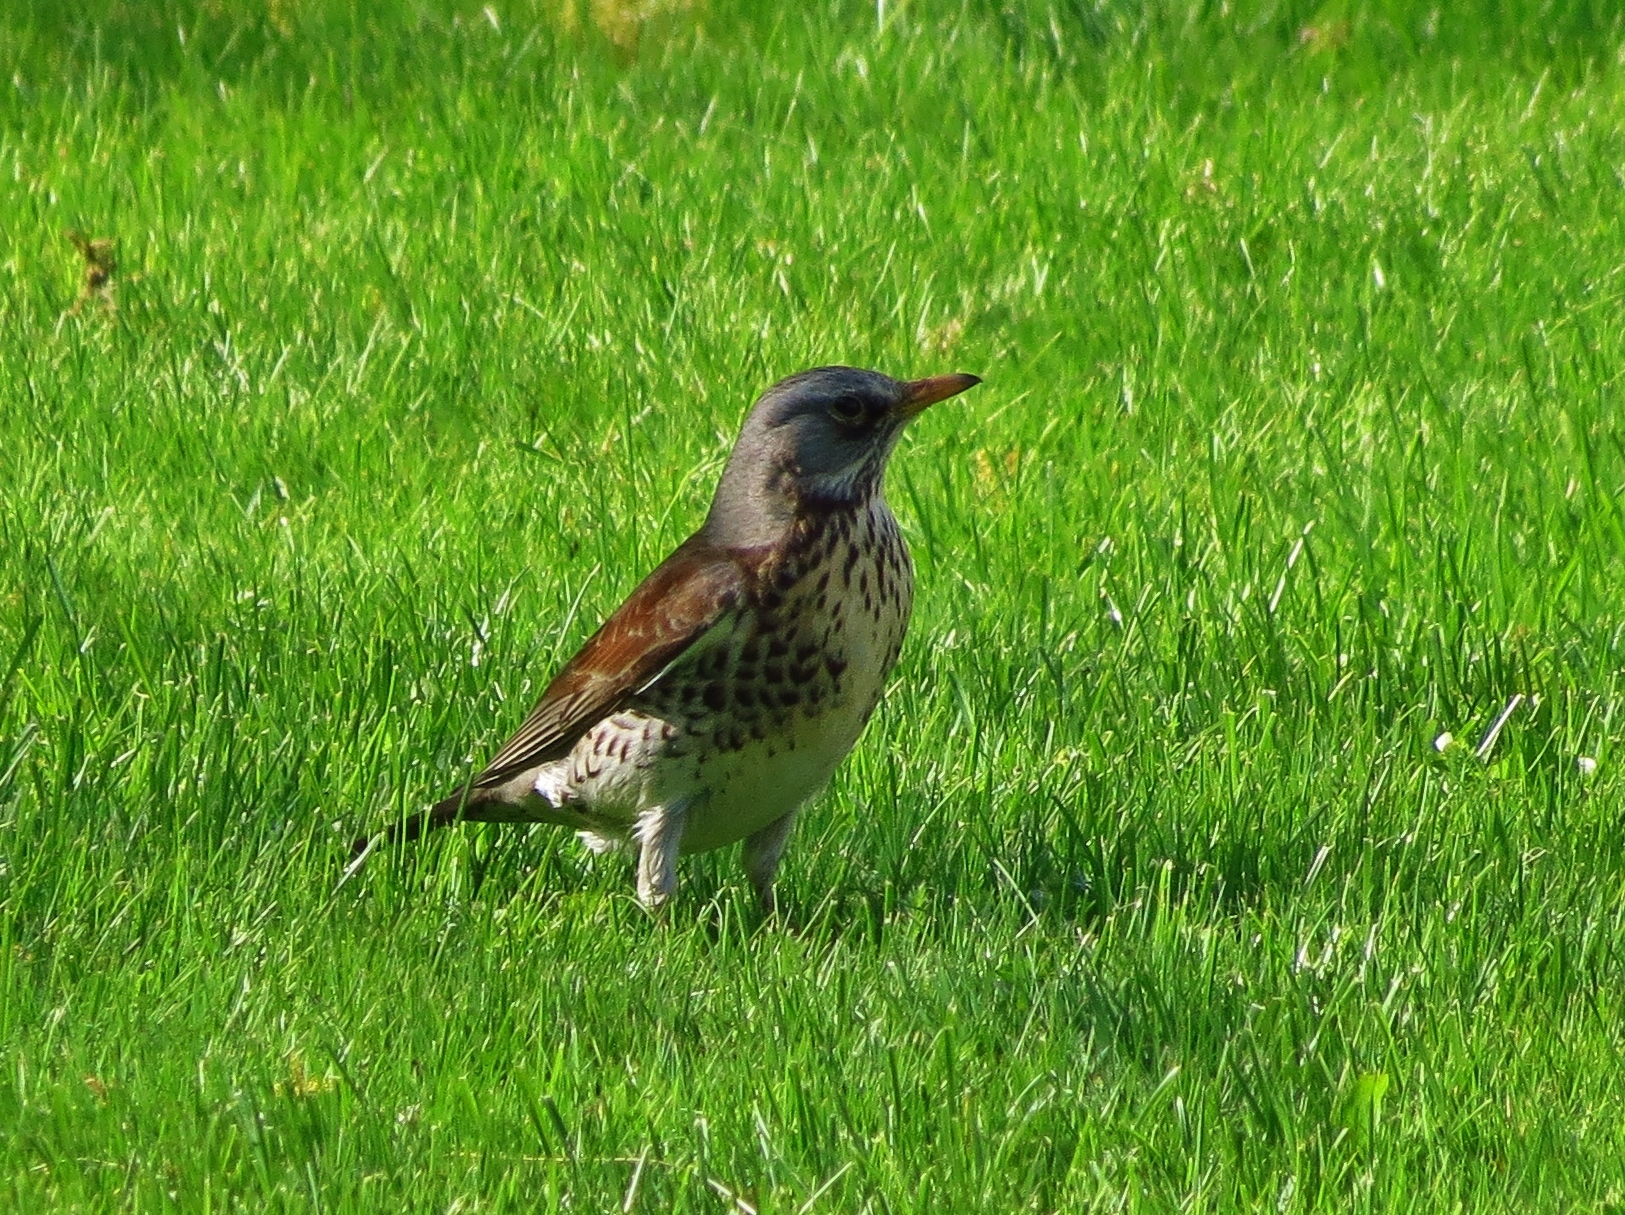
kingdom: Animalia
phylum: Chordata
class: Aves
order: Passeriformes
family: Turdidae
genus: Turdus
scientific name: Turdus pilaris
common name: Fieldfare
